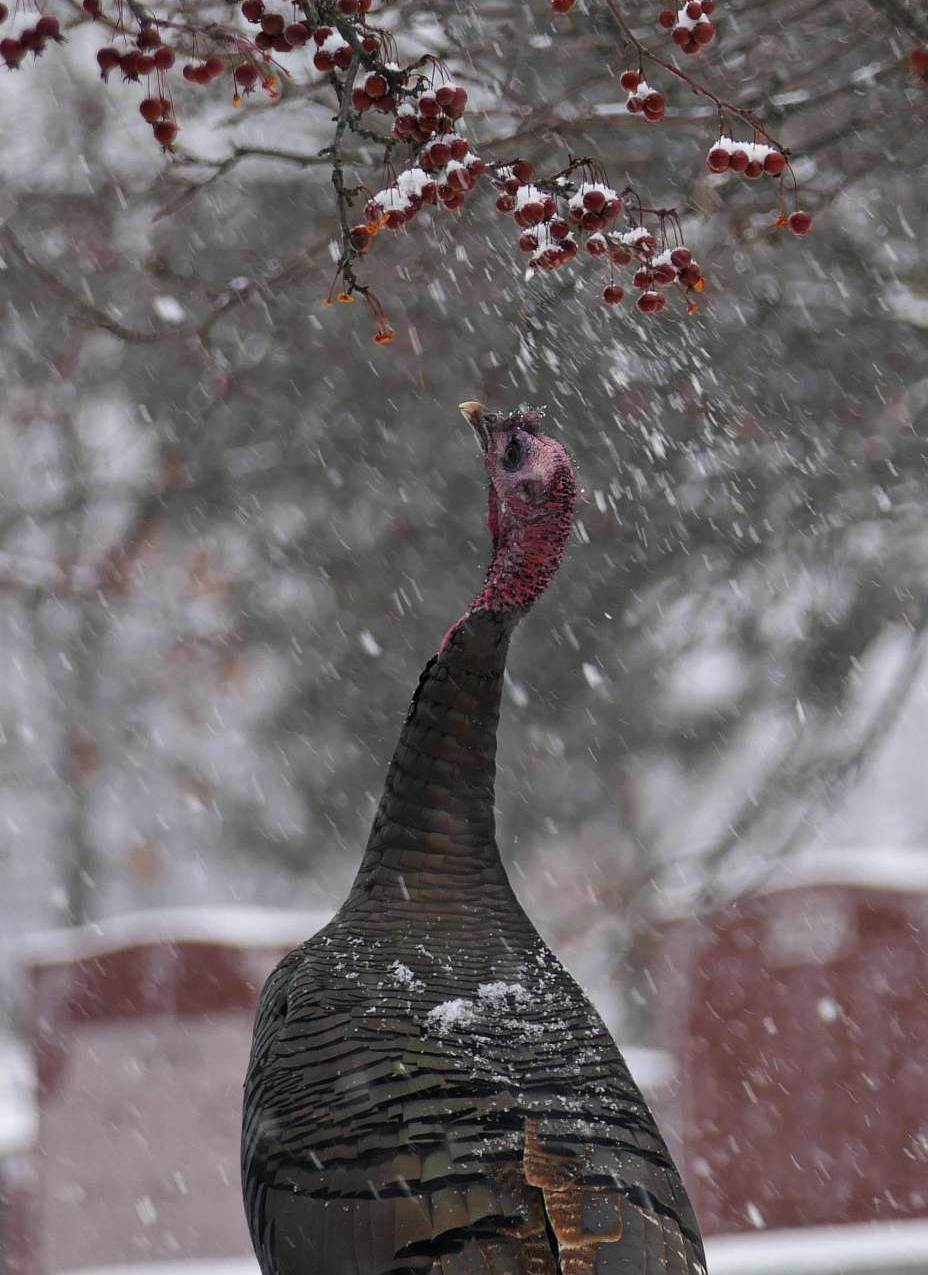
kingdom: Animalia
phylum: Chordata
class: Aves
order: Galliformes
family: Phasianidae
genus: Meleagris
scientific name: Meleagris gallopavo
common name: Wild turkey
